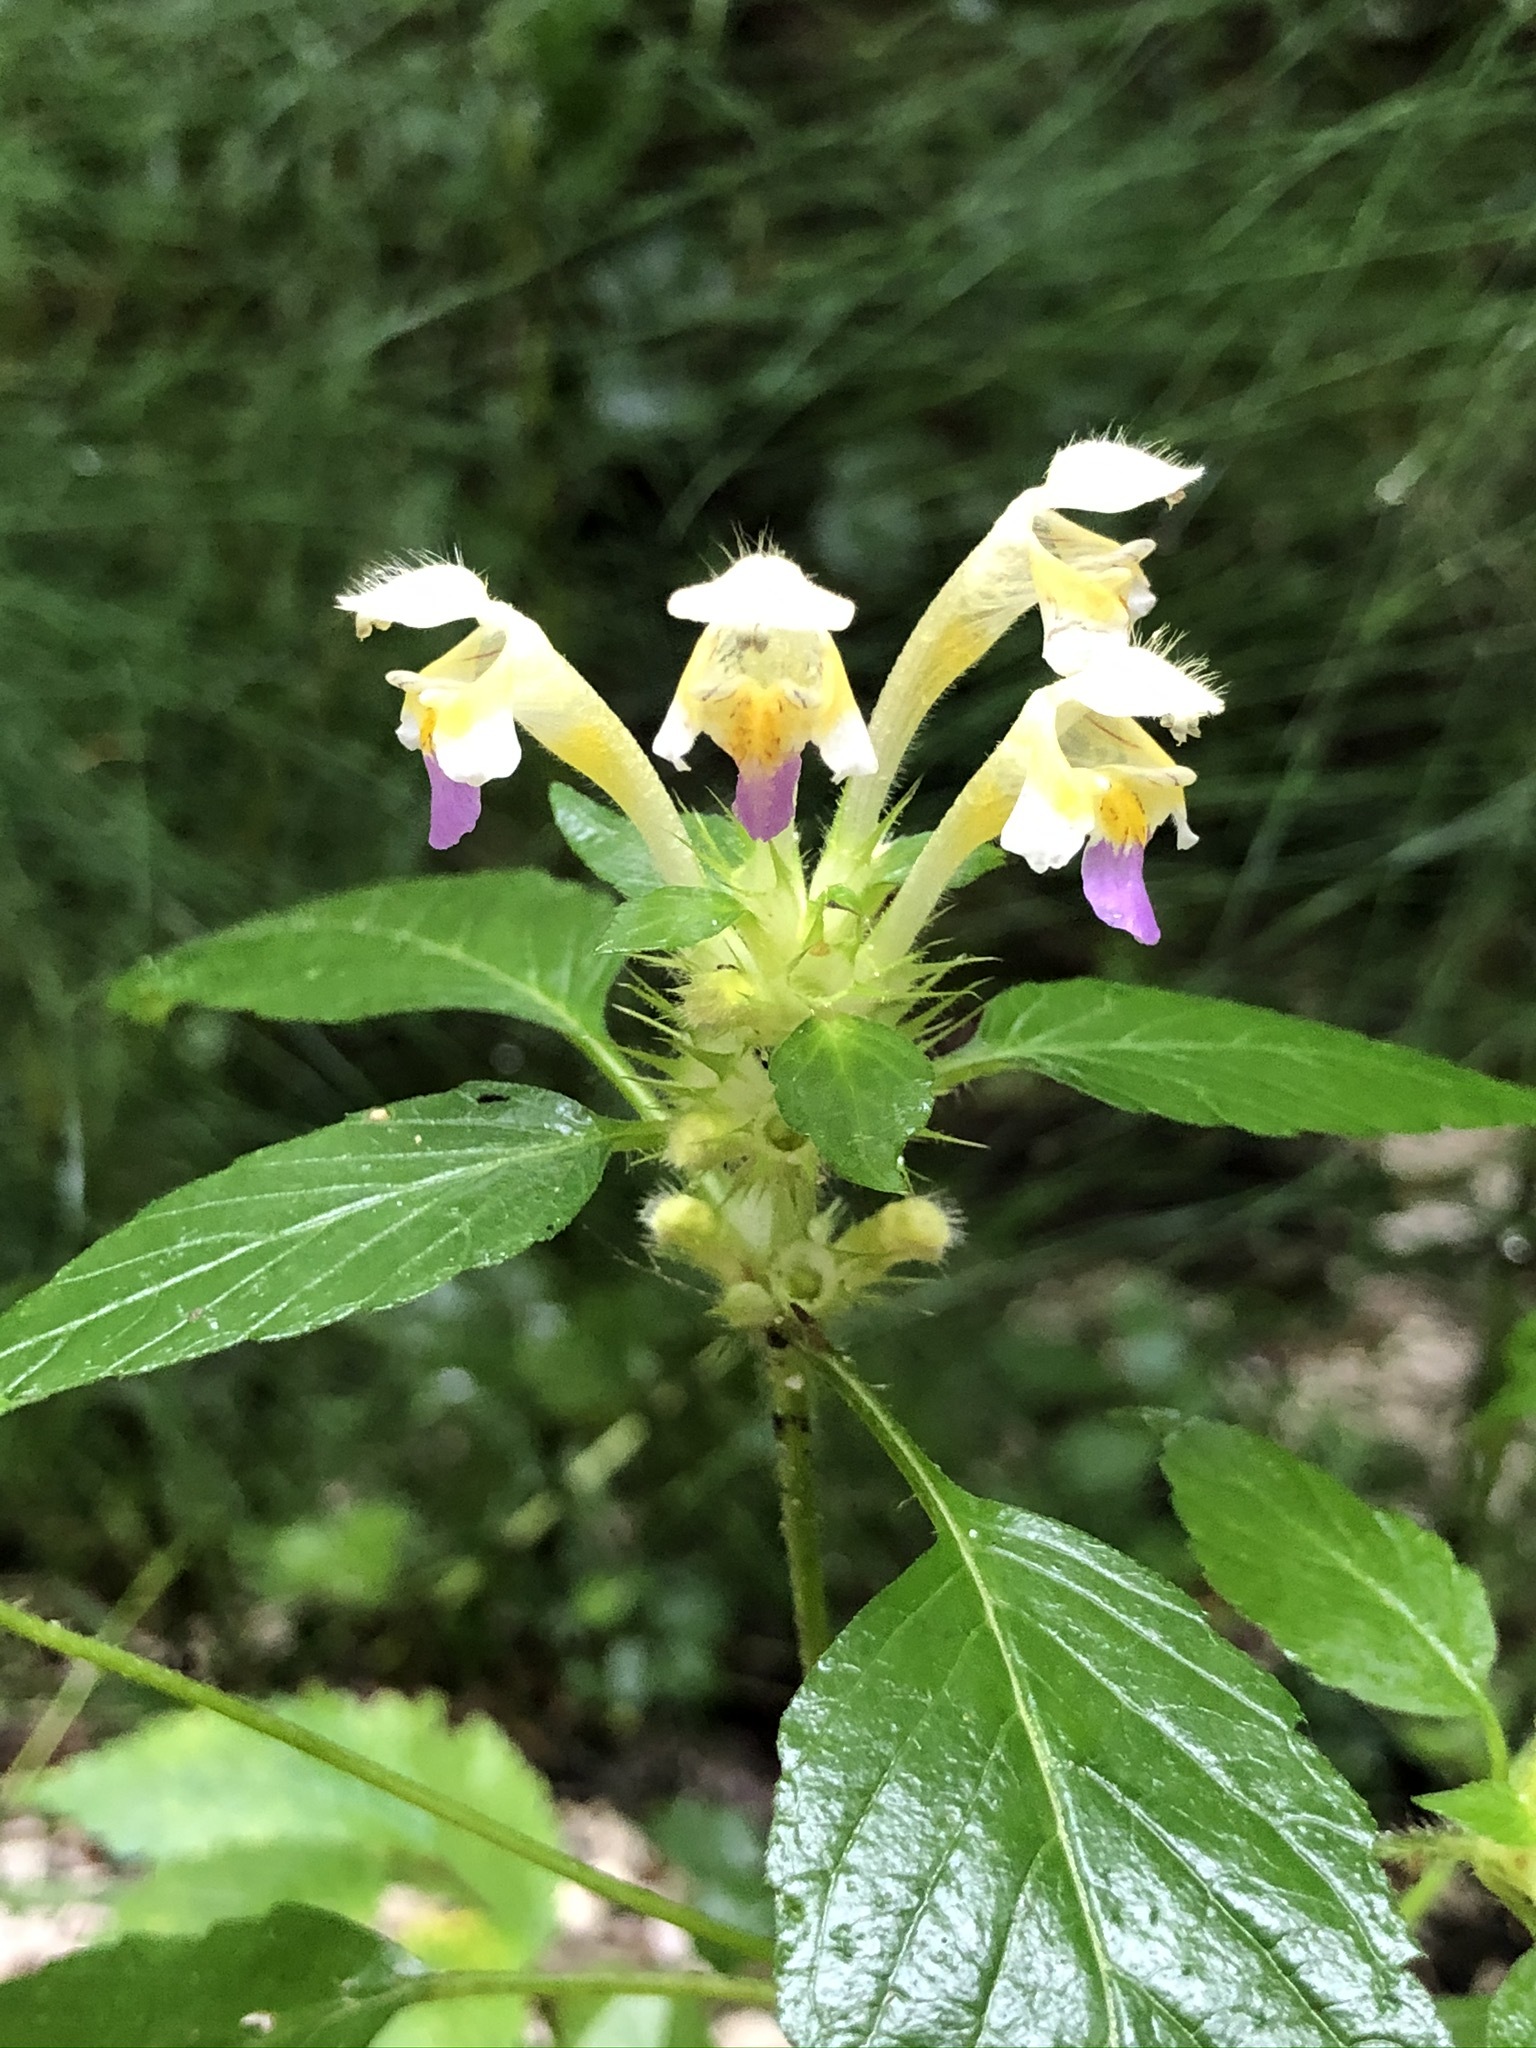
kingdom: Plantae
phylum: Tracheophyta
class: Magnoliopsida
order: Lamiales
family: Lamiaceae
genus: Galeopsis
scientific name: Galeopsis speciosa
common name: Large-flowered hemp-nettle
